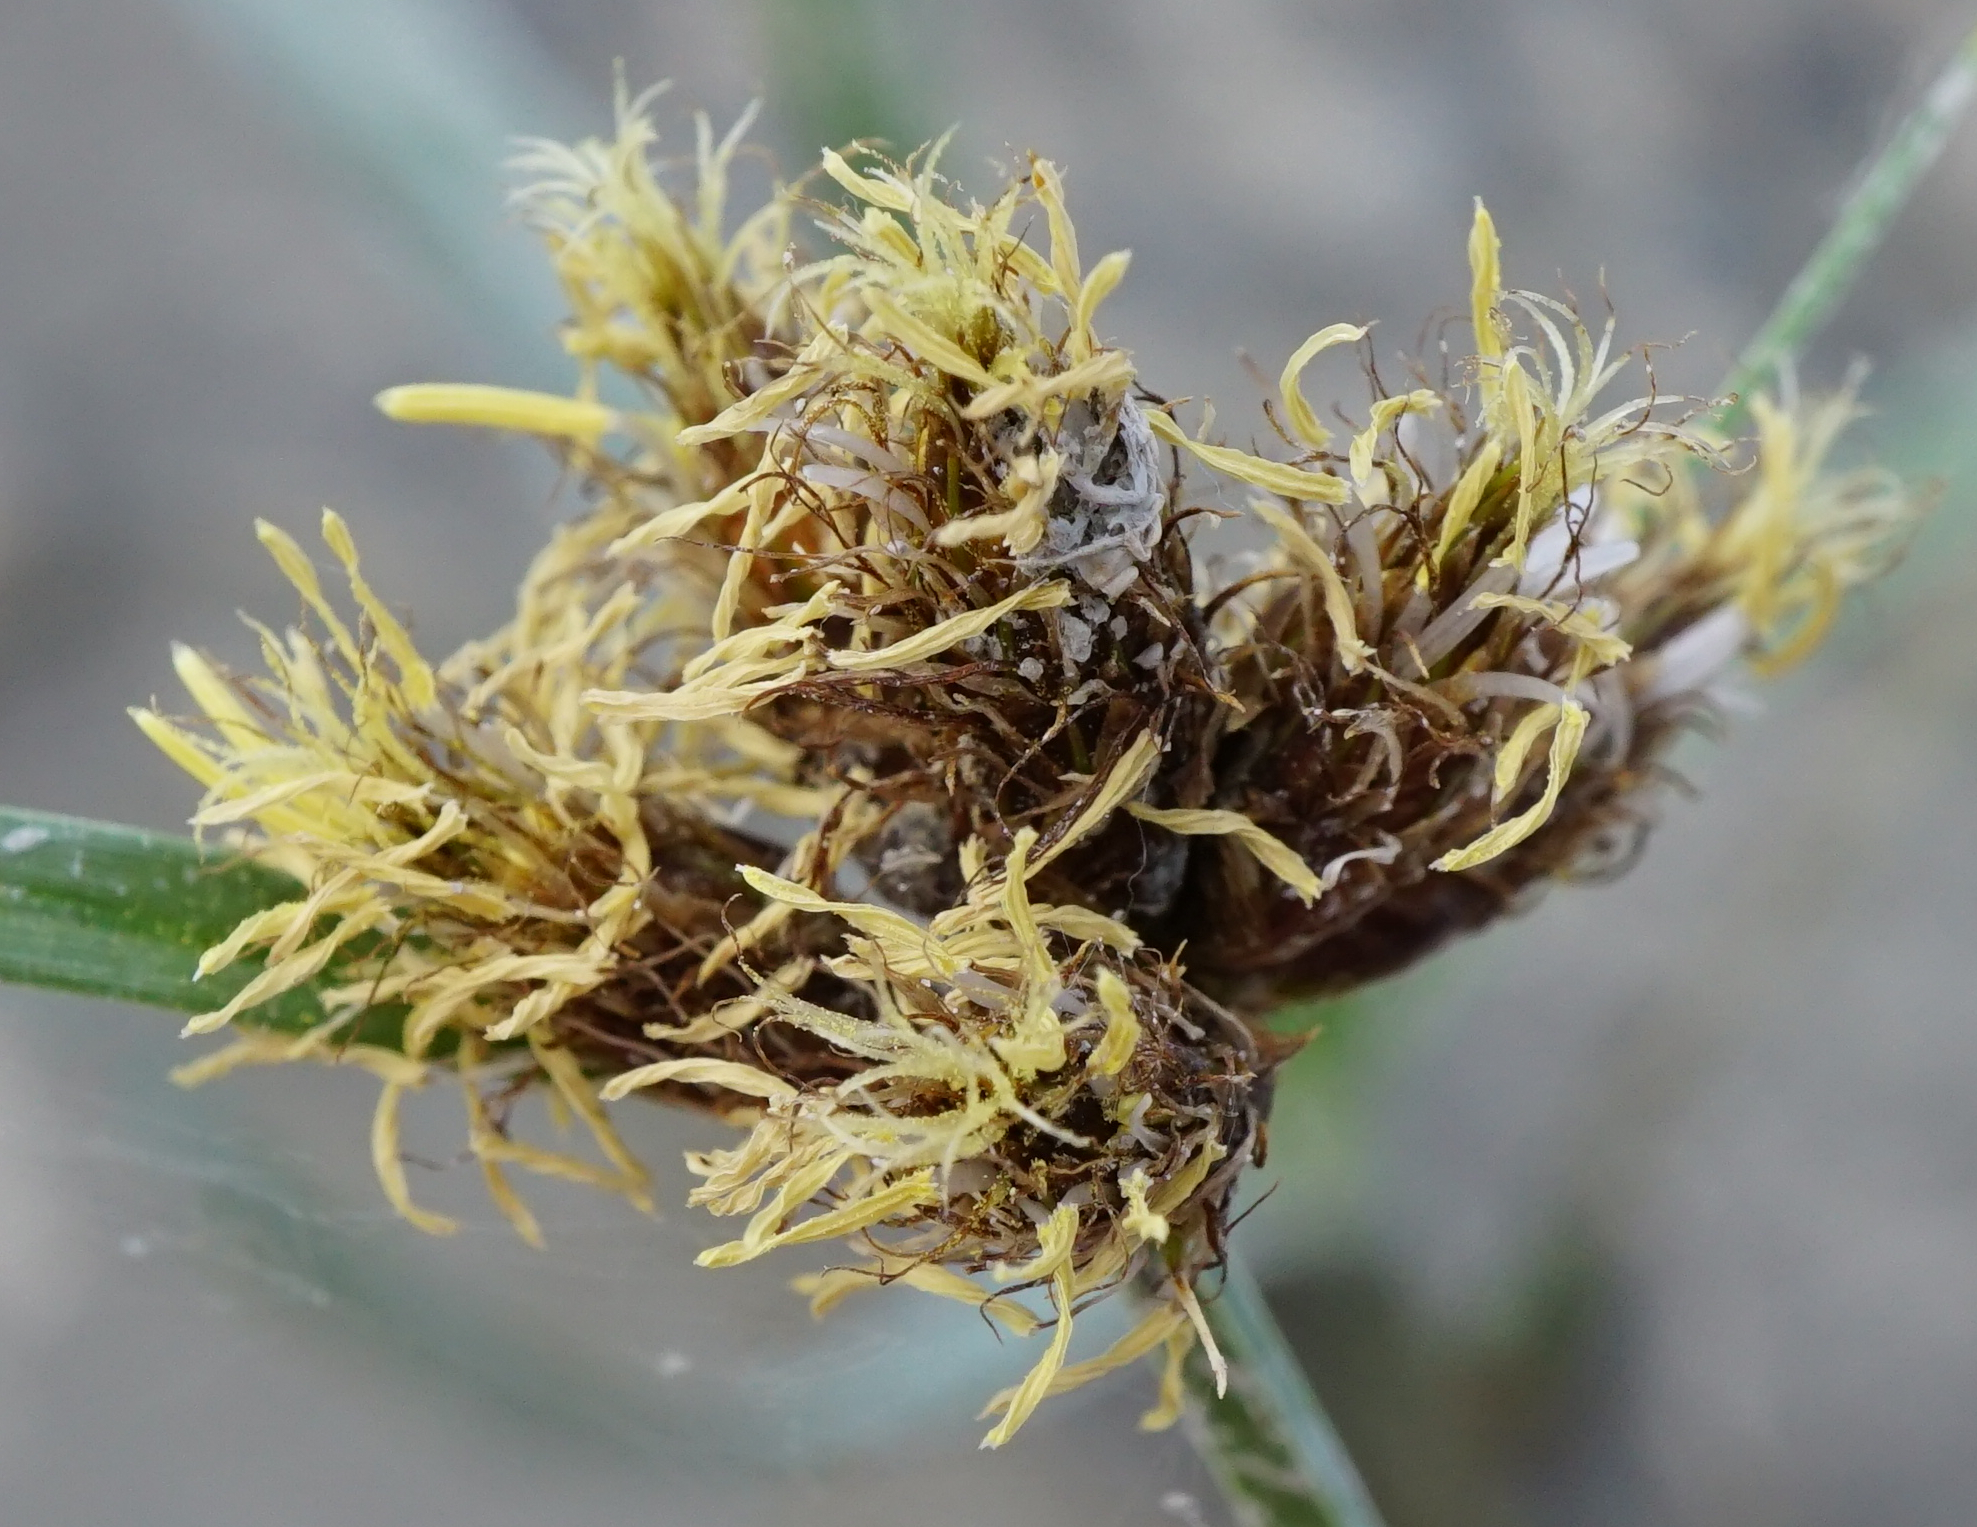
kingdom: Plantae
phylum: Tracheophyta
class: Liliopsida
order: Poales
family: Cyperaceae
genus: Bolboschoenus
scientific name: Bolboschoenus maritimus
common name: Sea club-rush
